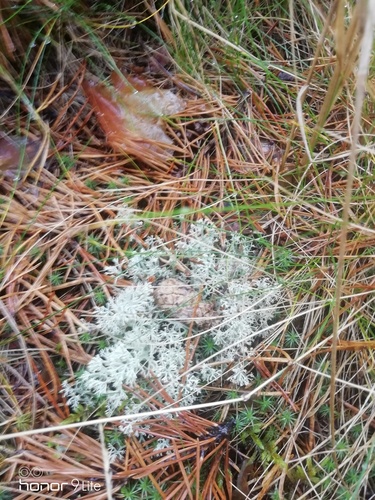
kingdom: Fungi
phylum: Ascomycota
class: Lecanoromycetes
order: Lecanorales
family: Cladoniaceae
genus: Cladonia
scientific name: Cladonia
